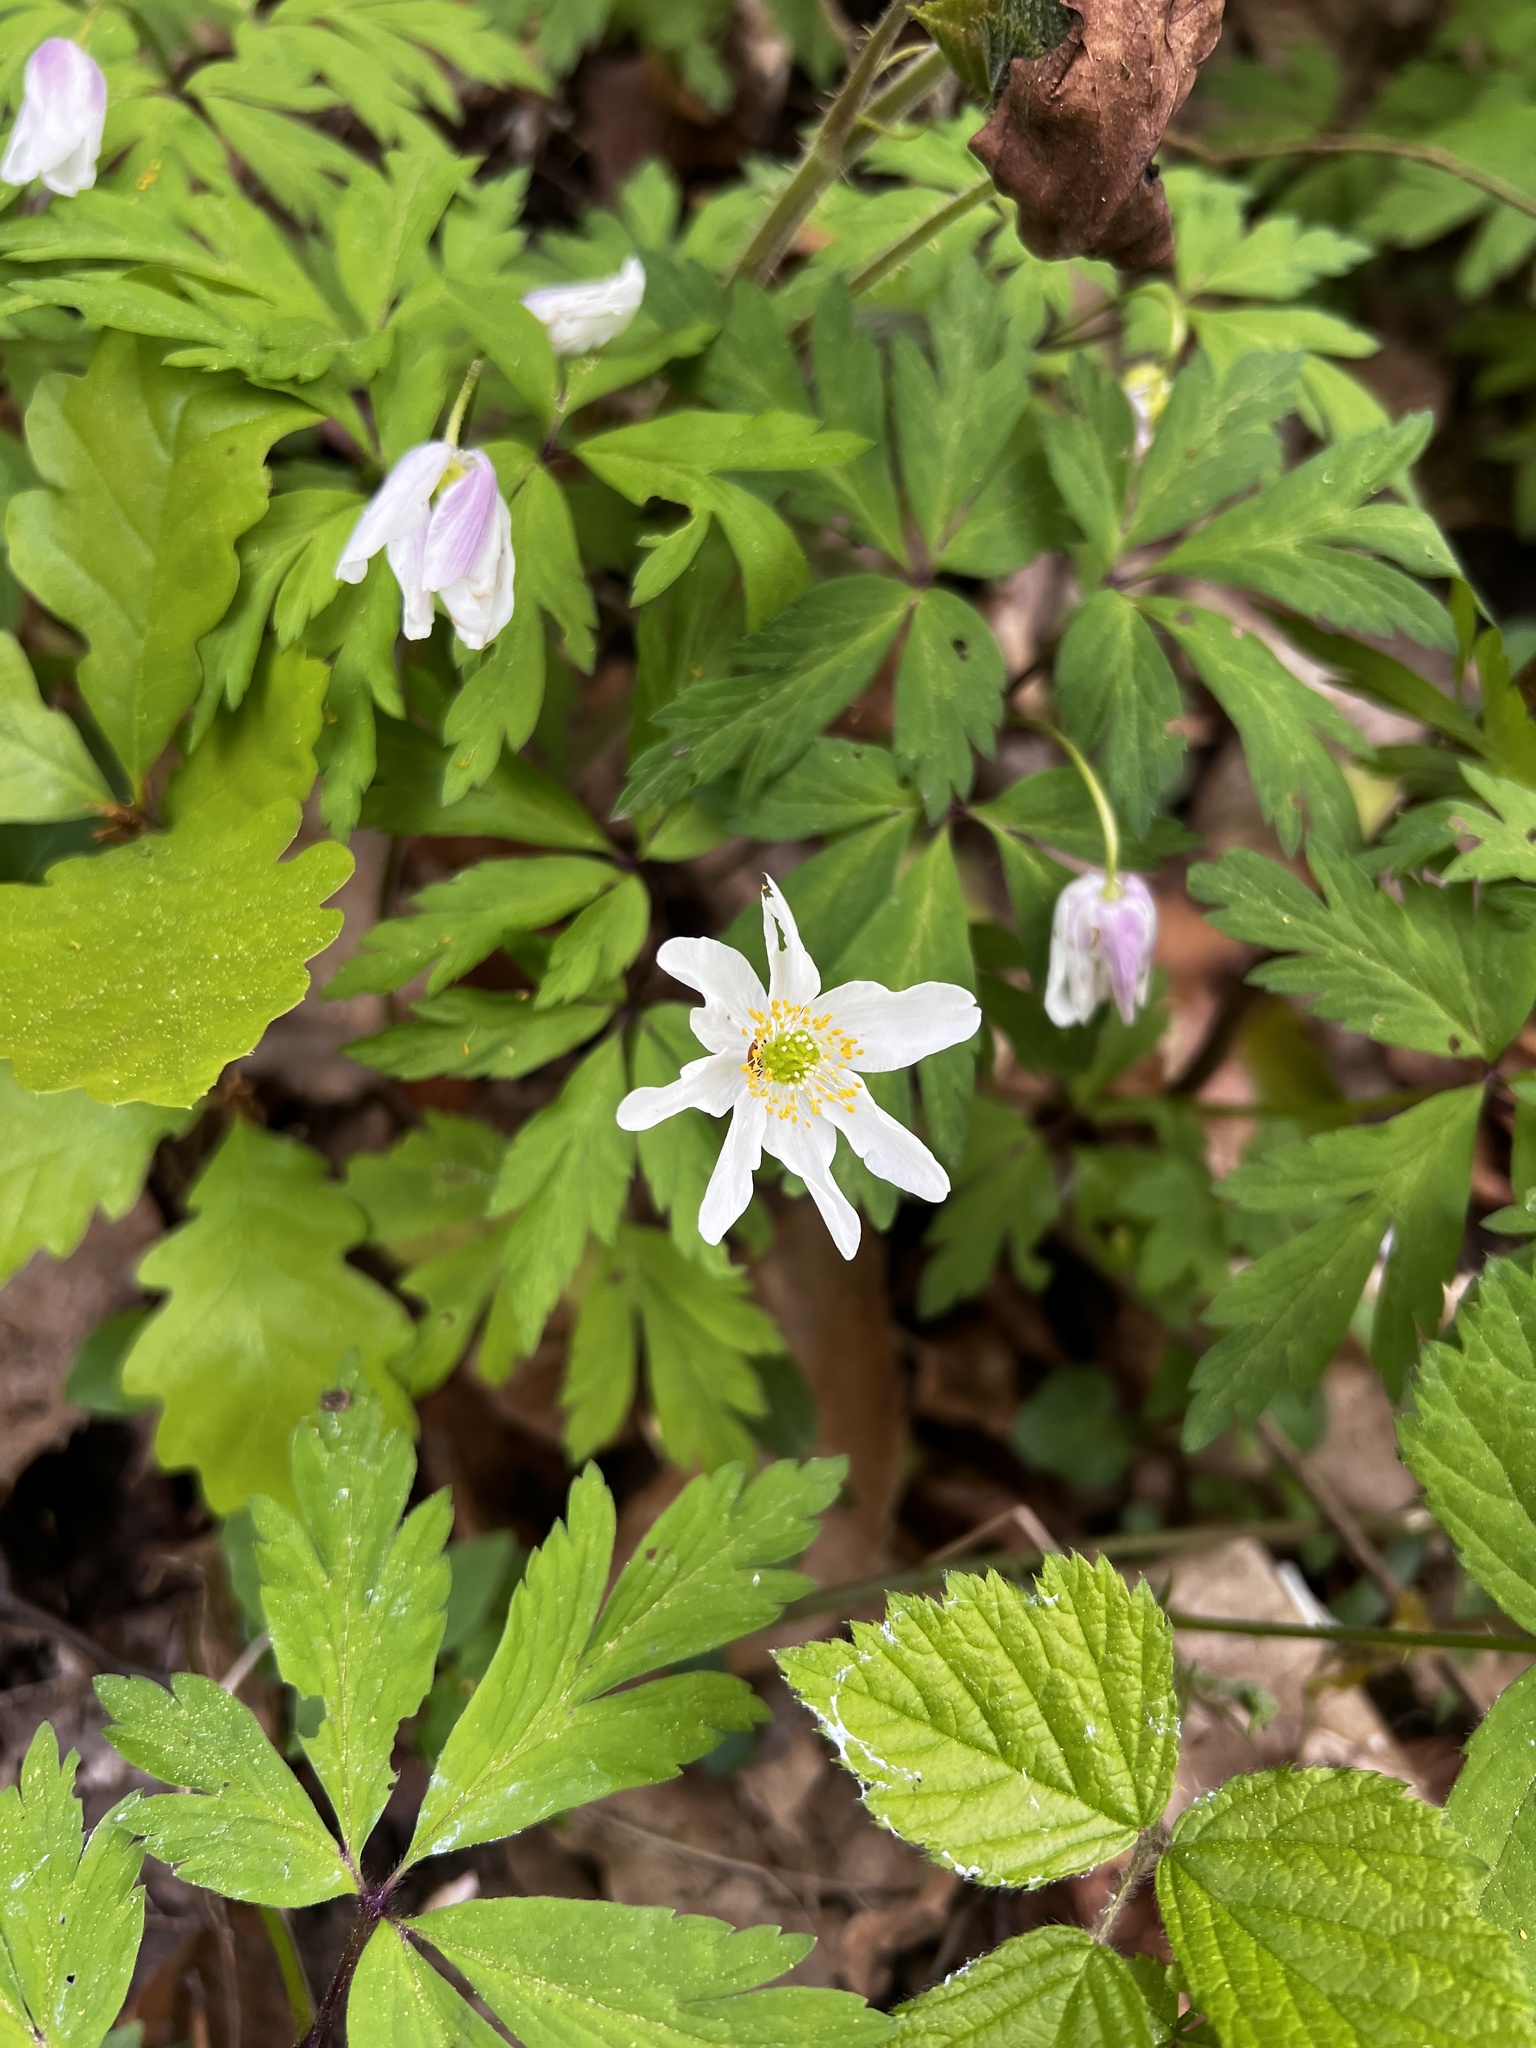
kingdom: Plantae
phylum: Tracheophyta
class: Magnoliopsida
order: Ranunculales
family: Ranunculaceae
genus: Anemone
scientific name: Anemone nemorosa
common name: Wood anemone
